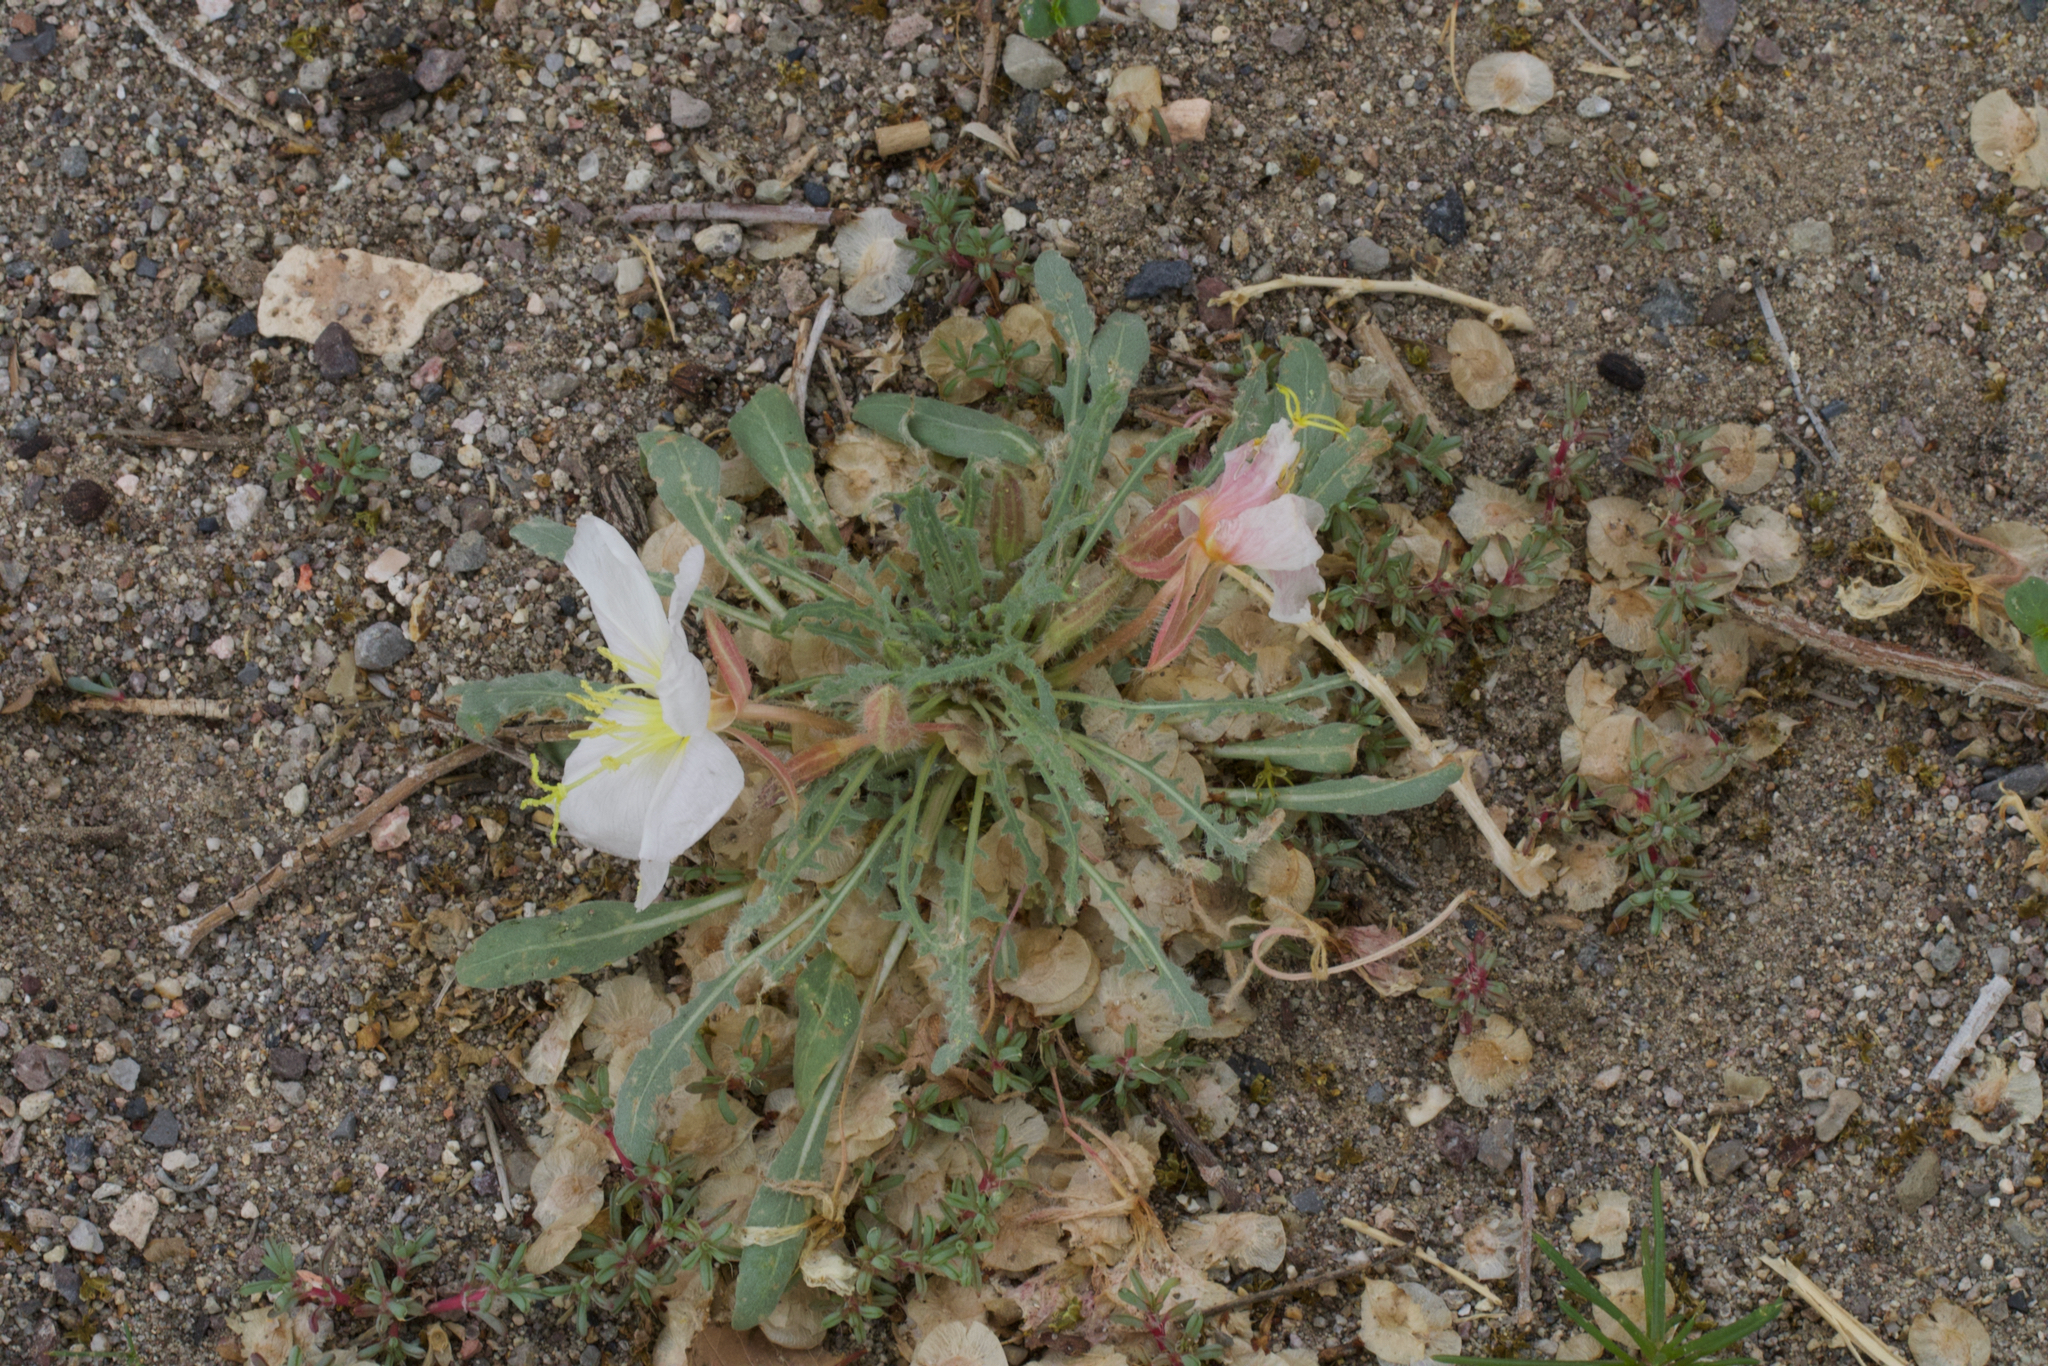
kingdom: Plantae
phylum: Tracheophyta
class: Magnoliopsida
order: Myrtales
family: Onagraceae
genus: Oenothera
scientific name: Oenothera deltoides
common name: Basket evening-primrose
